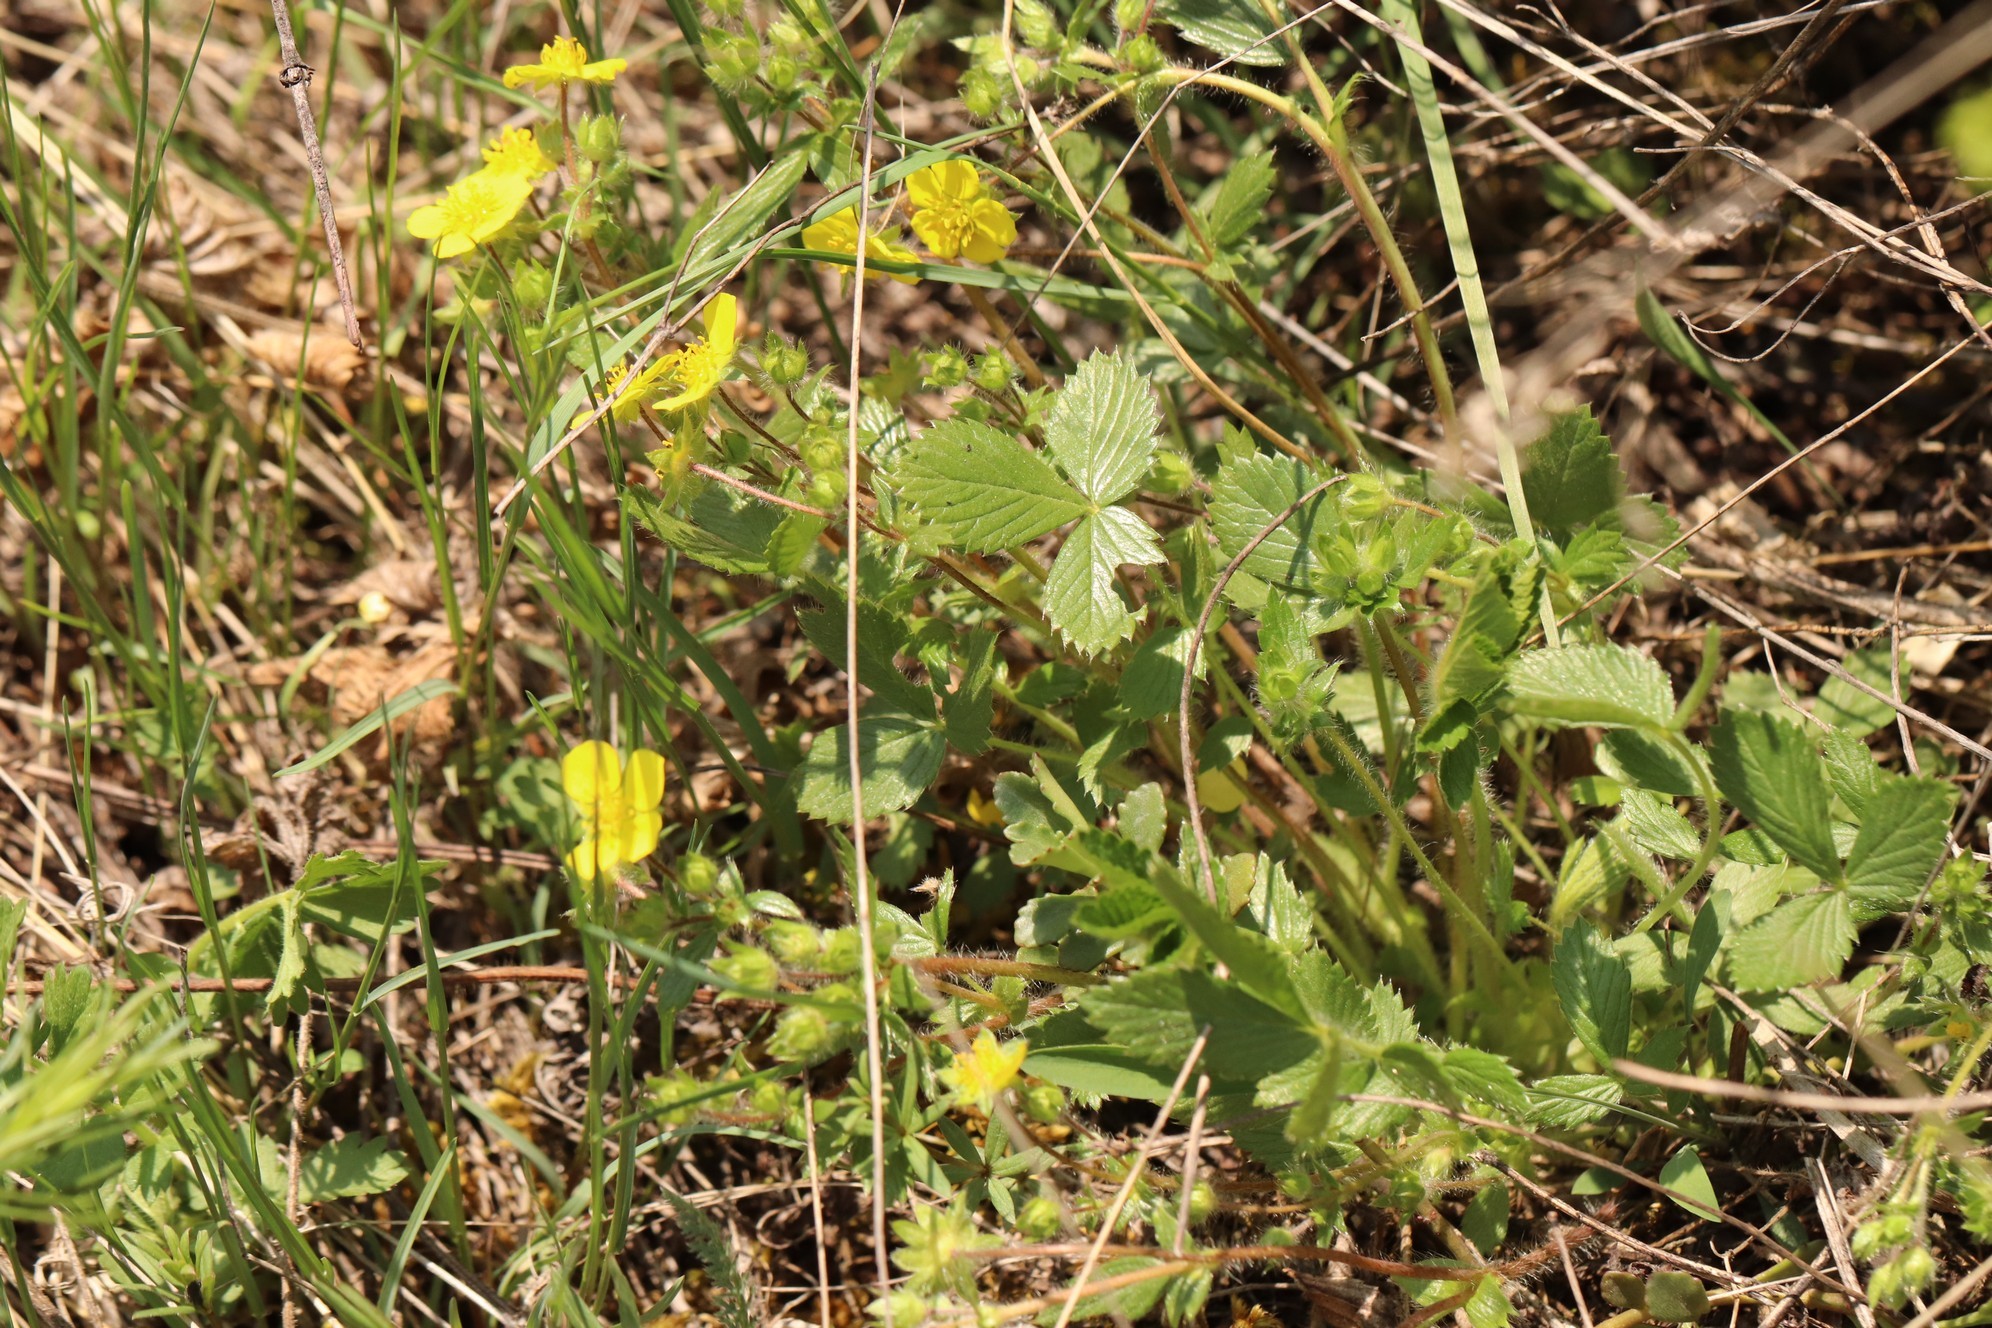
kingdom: Plantae
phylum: Tracheophyta
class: Magnoliopsida
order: Rosales
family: Rosaceae
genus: Potentilla
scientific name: Potentilla fragarioides
